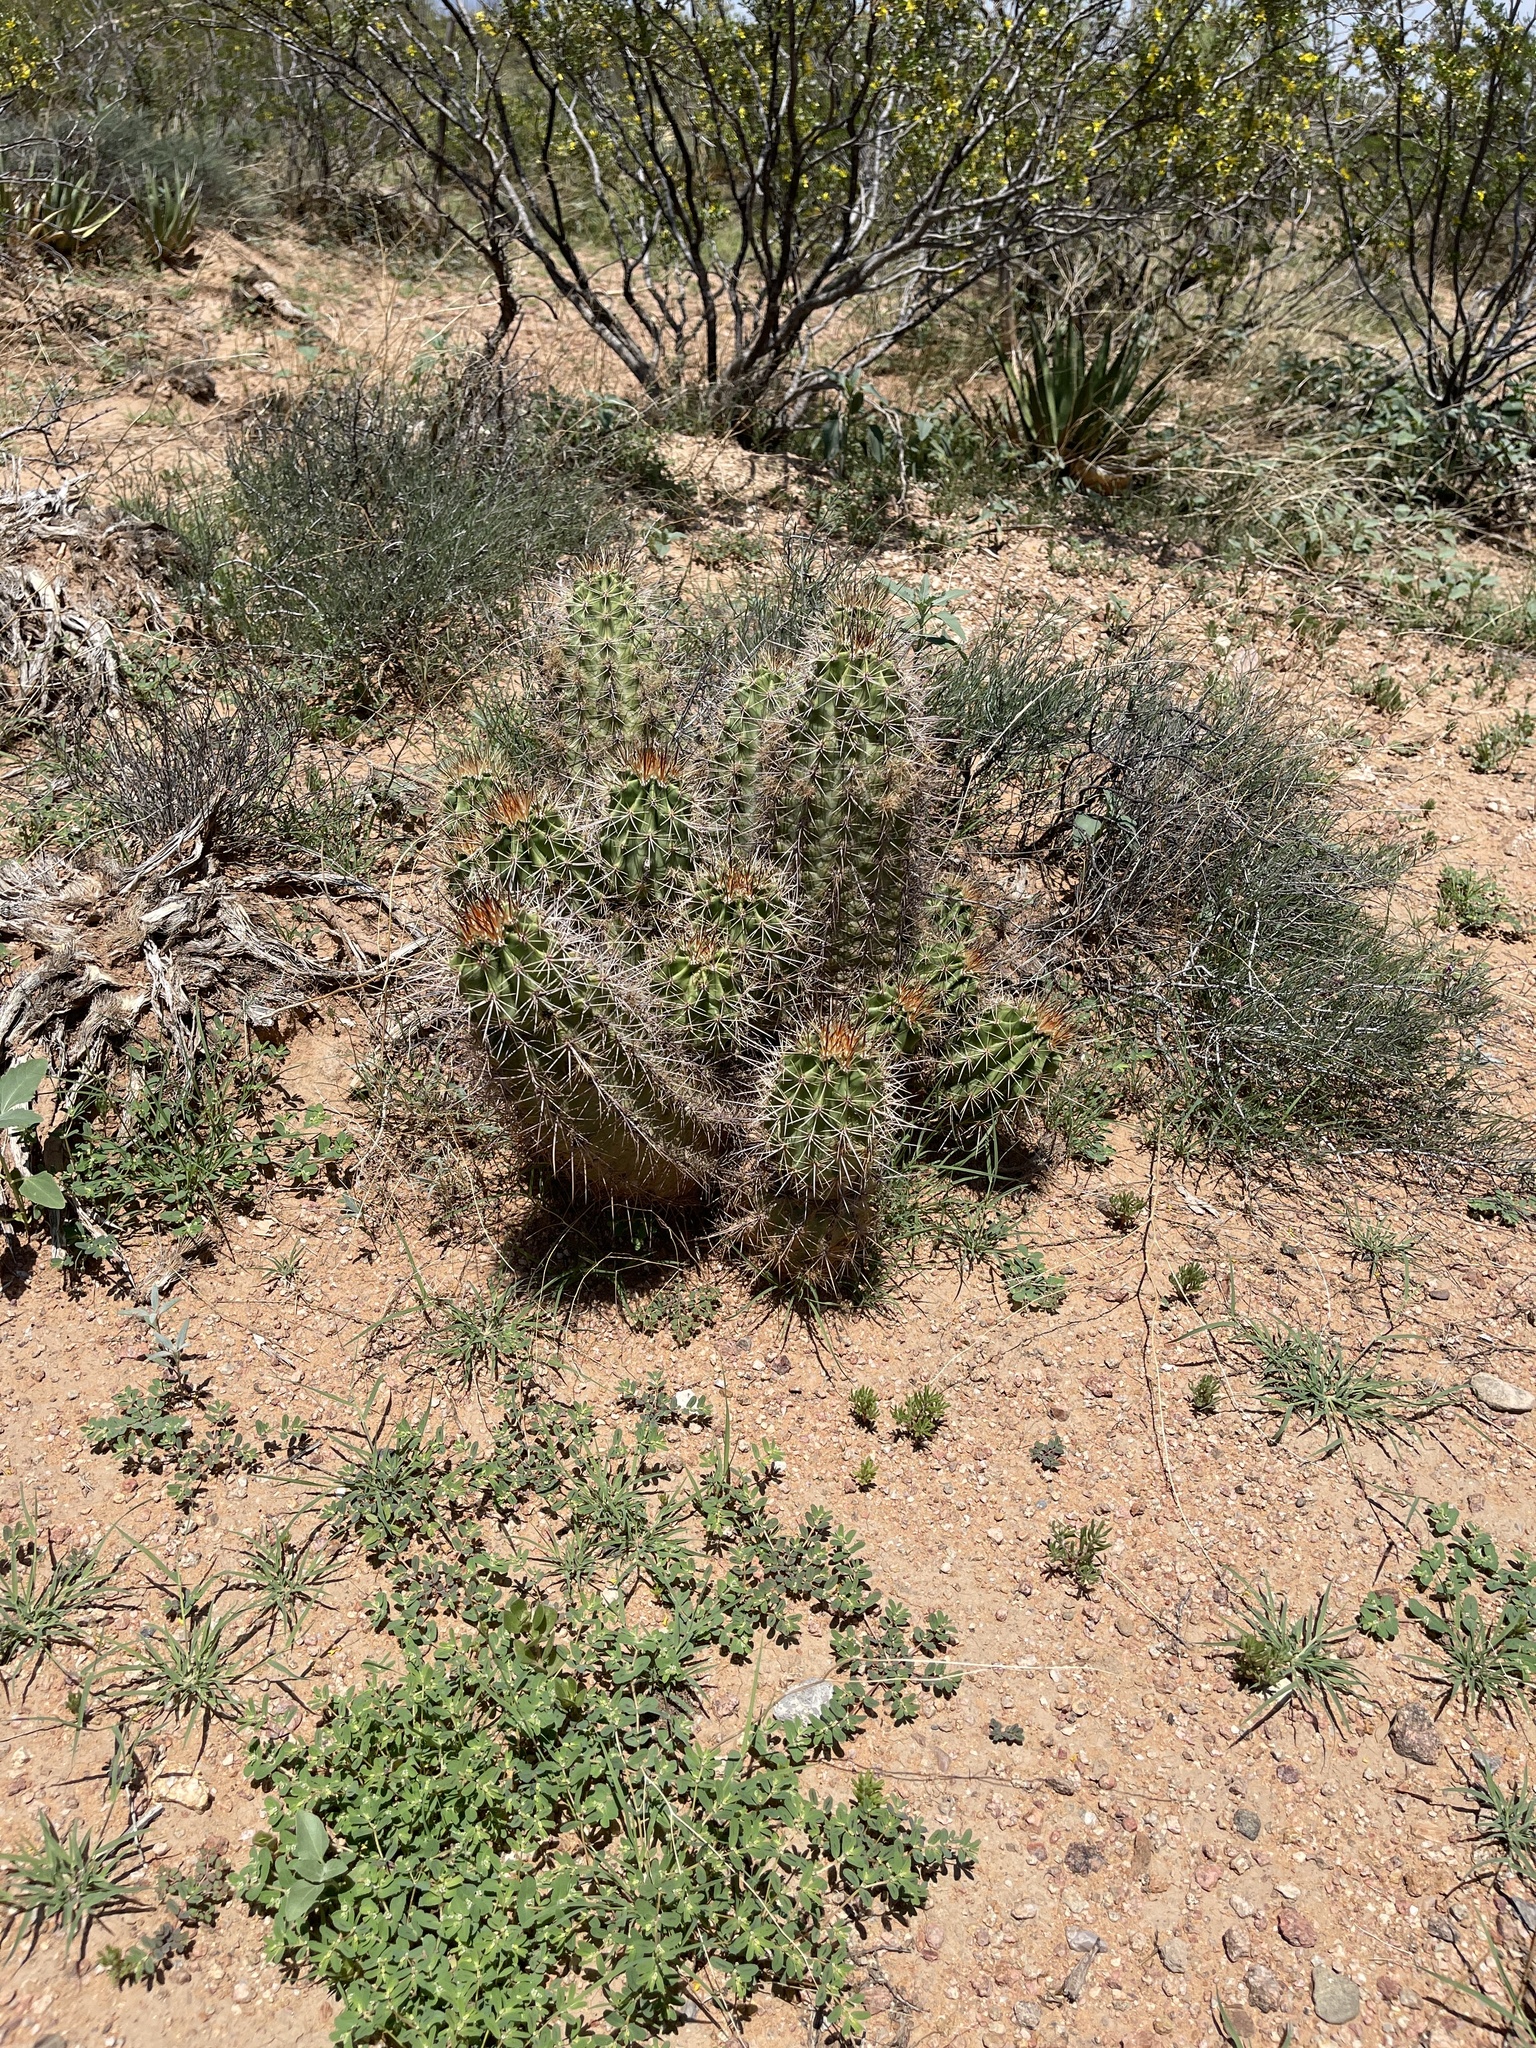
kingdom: Plantae
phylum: Tracheophyta
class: Magnoliopsida
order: Caryophyllales
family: Cactaceae
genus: Echinocereus
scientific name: Echinocereus coccineus
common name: Scarlet hedgehog cactus
